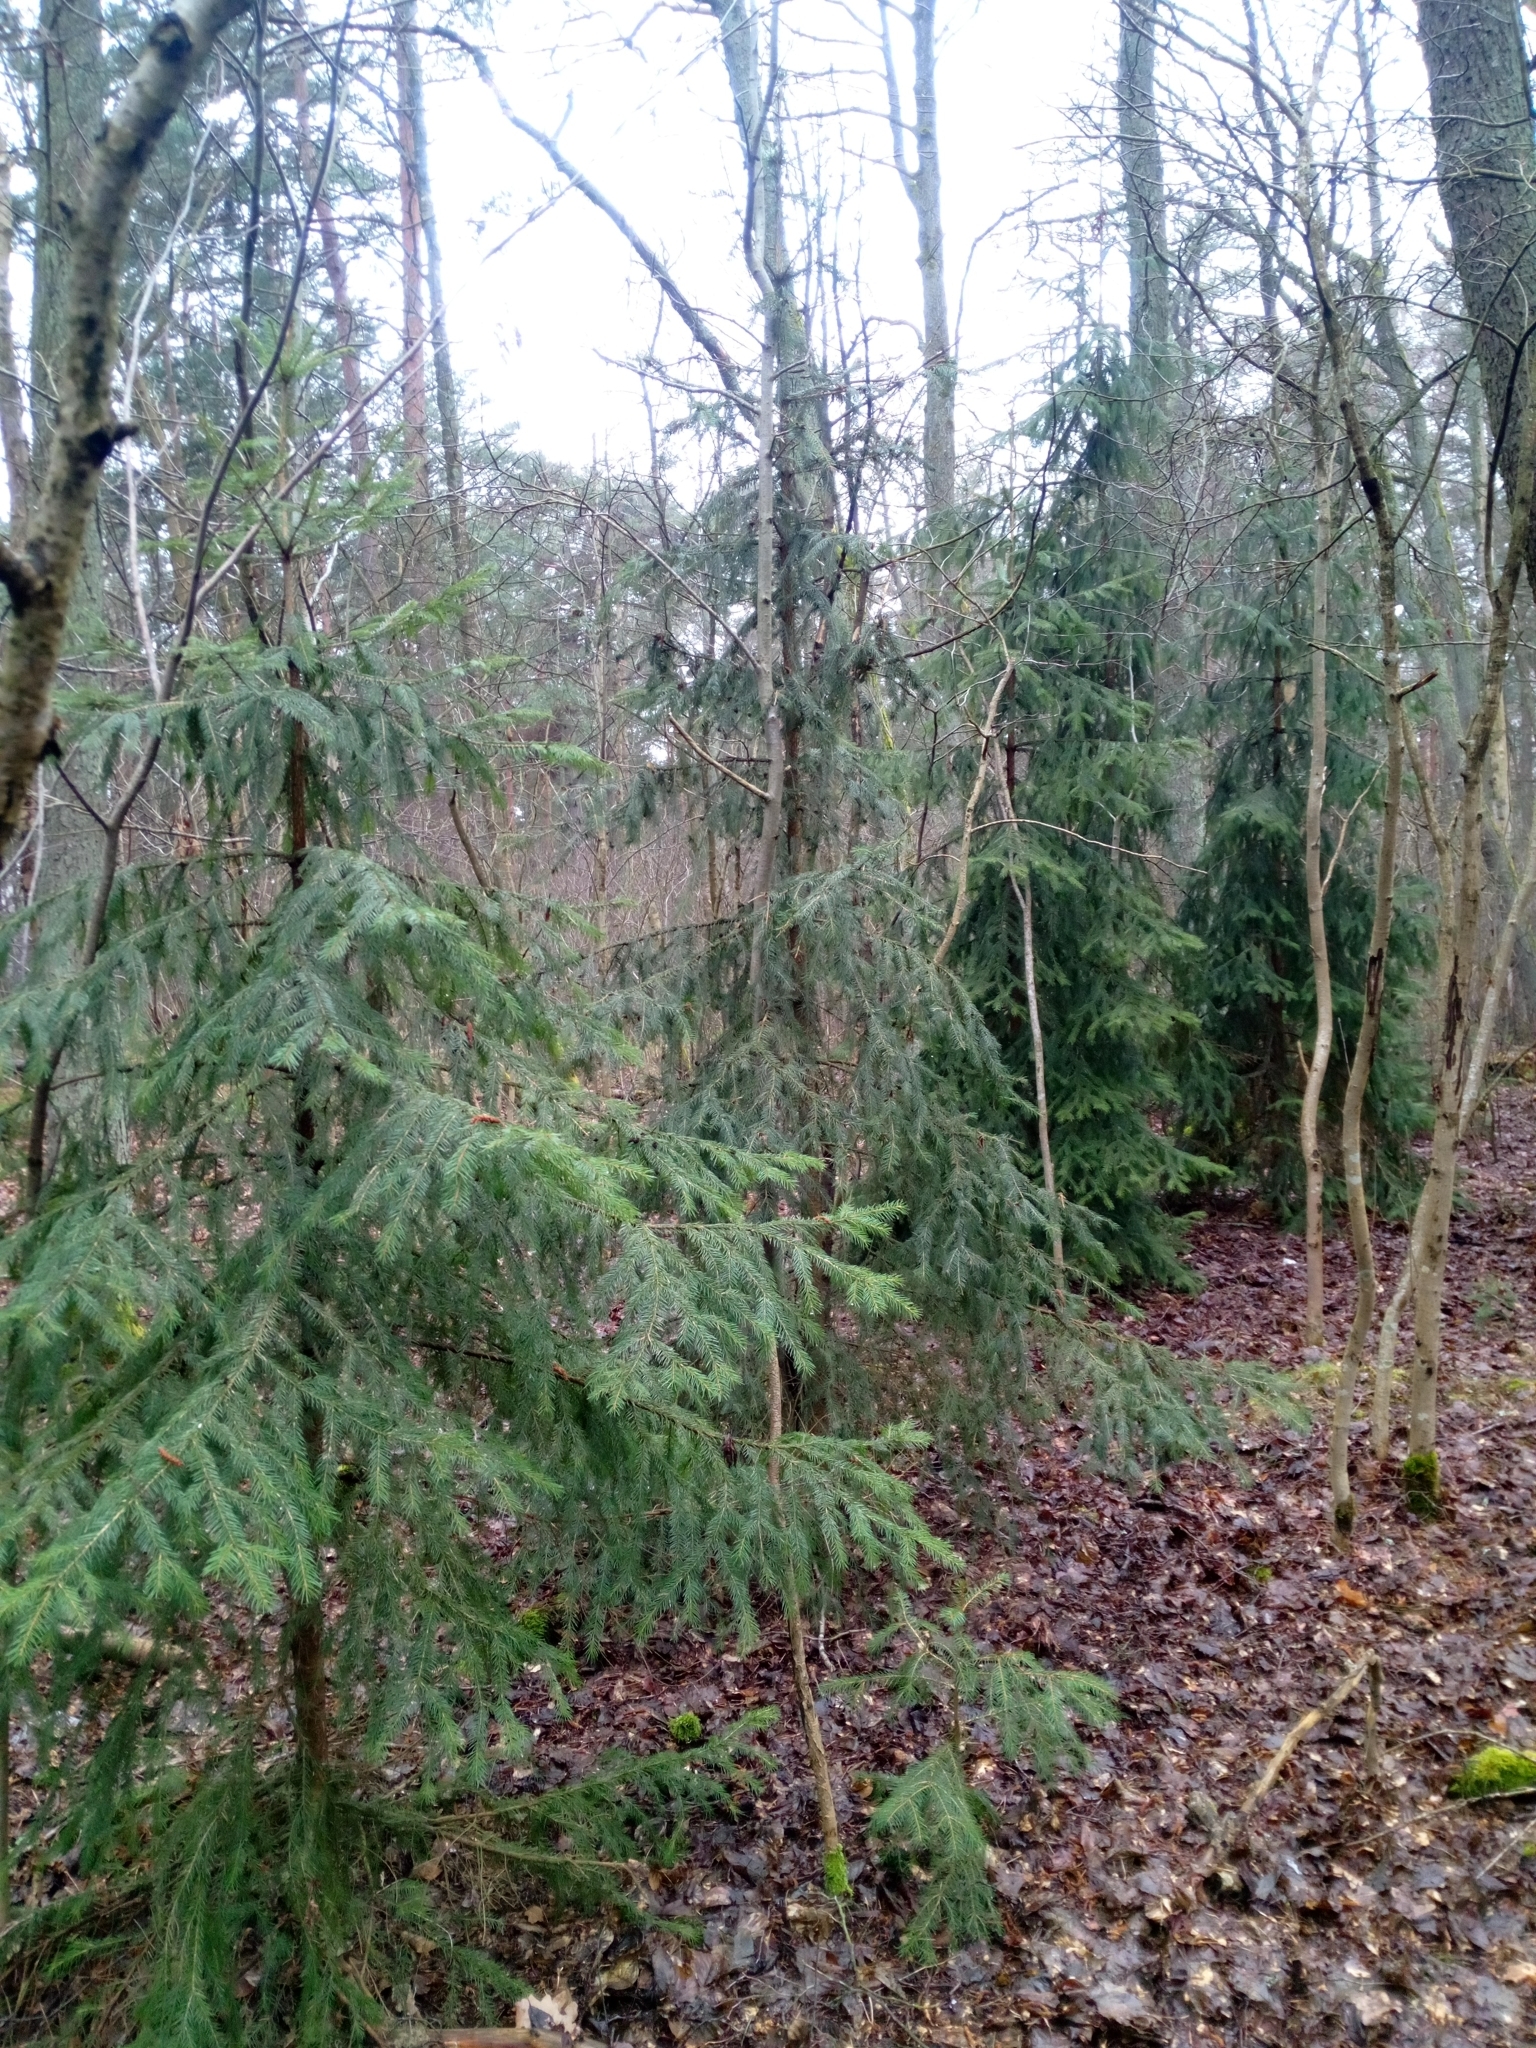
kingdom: Plantae
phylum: Tracheophyta
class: Pinopsida
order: Pinales
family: Pinaceae
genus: Picea
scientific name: Picea abies
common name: Norway spruce
